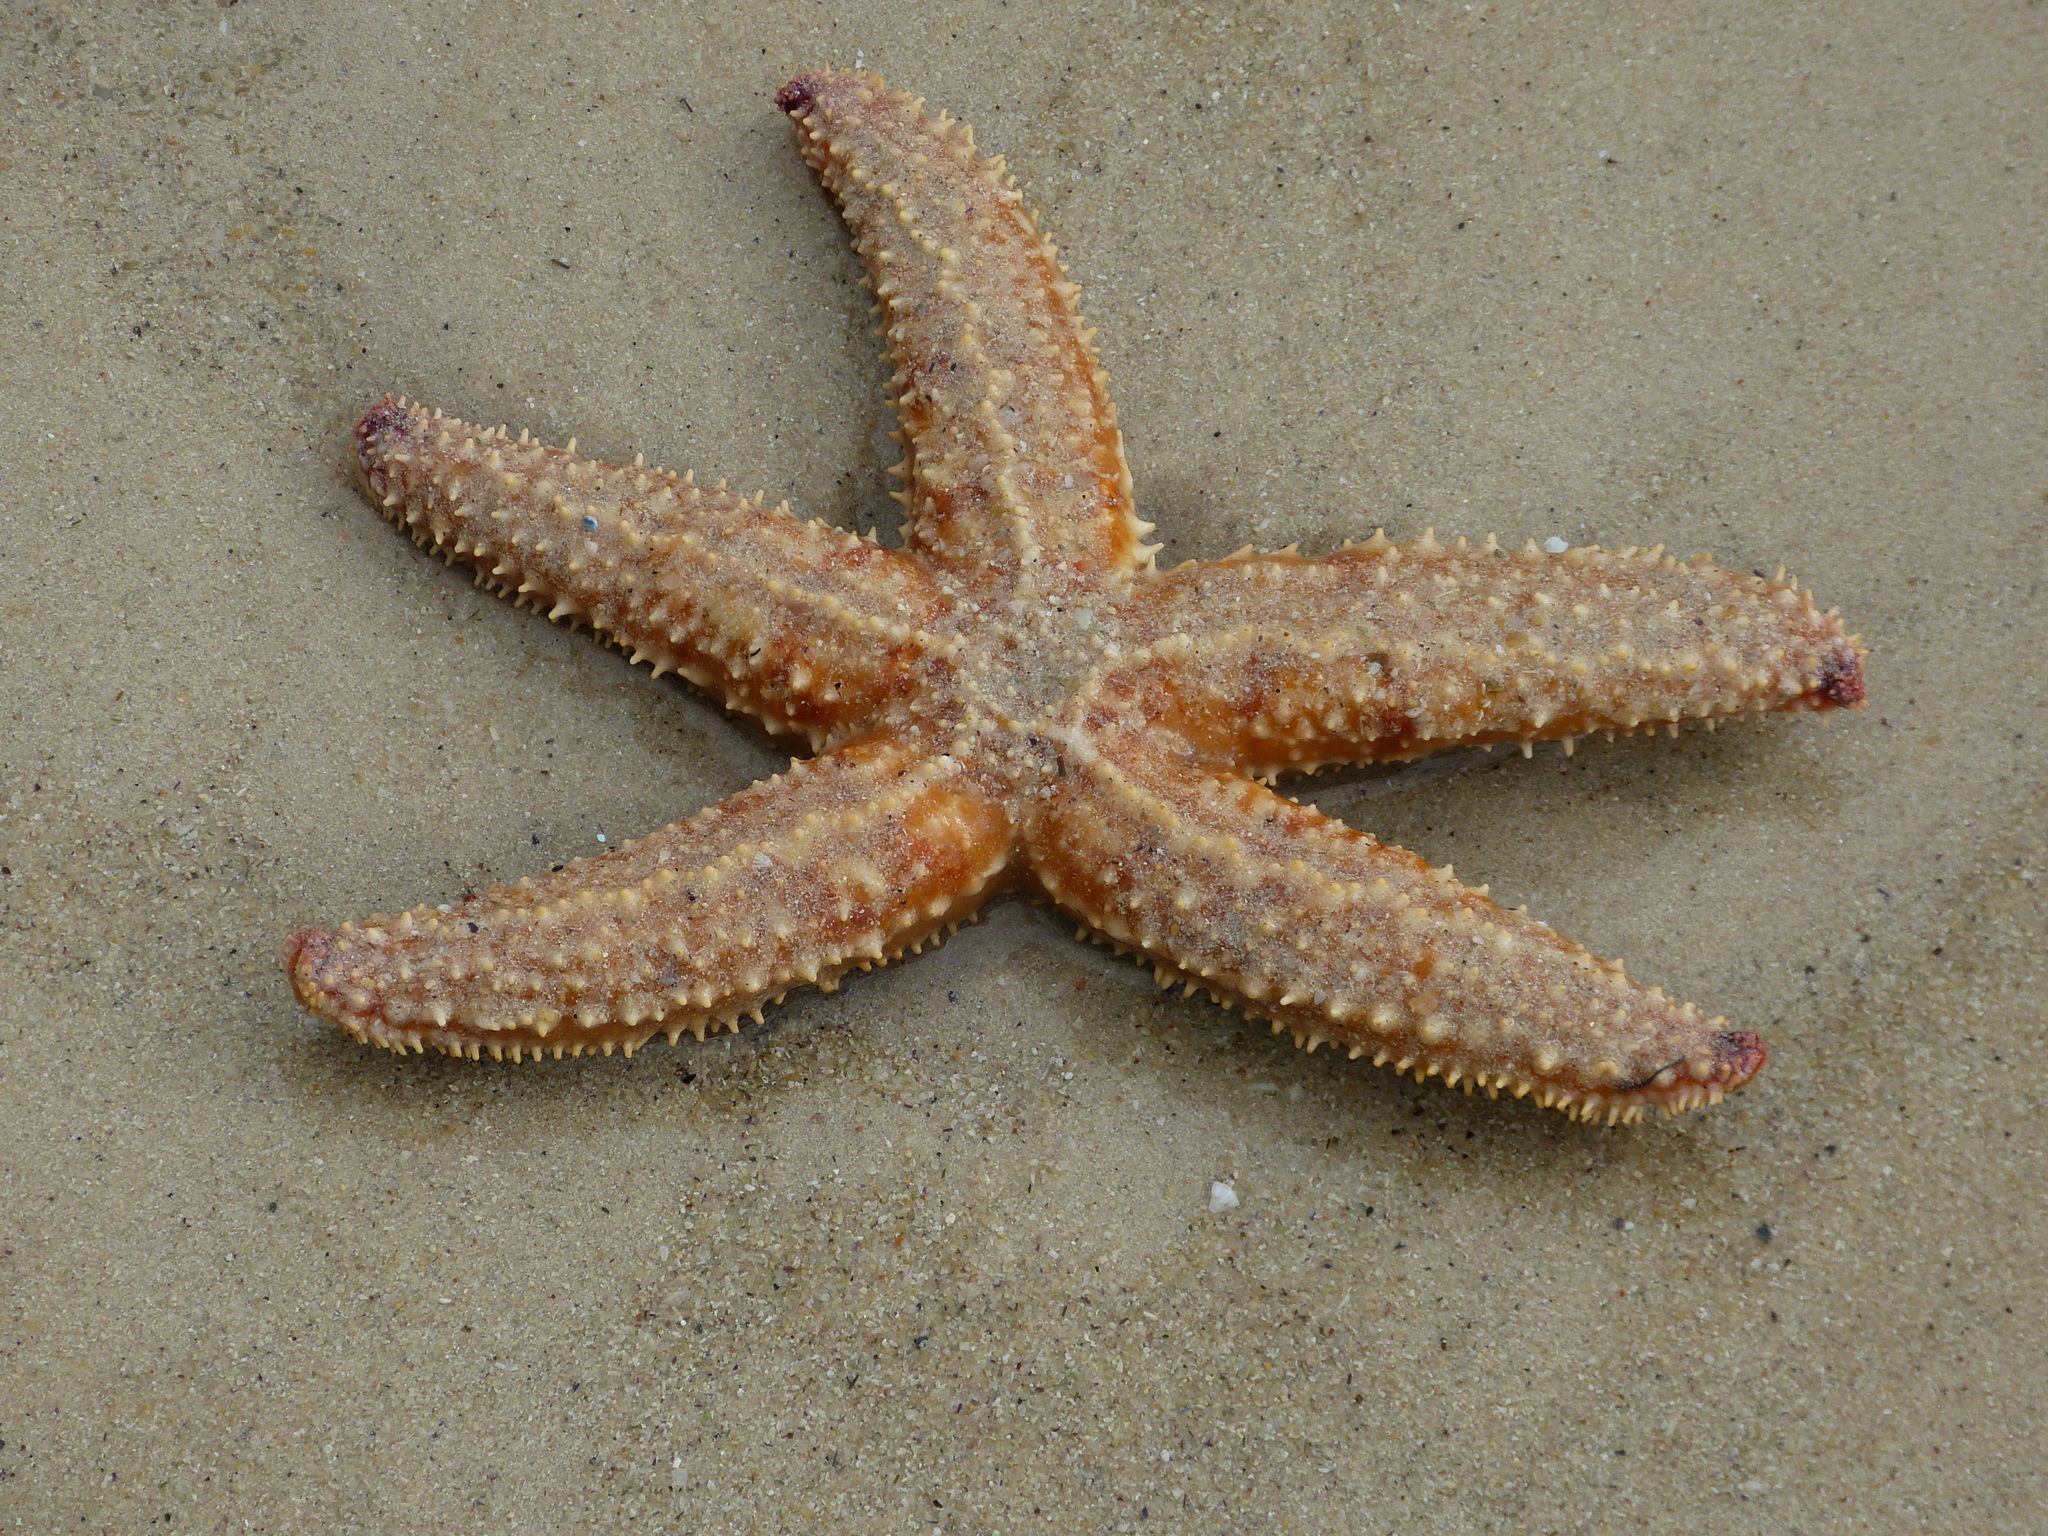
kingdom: Animalia
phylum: Echinodermata
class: Asteroidea
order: Forcipulatida
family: Asteriidae
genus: Marthasterias
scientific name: Marthasterias africana
